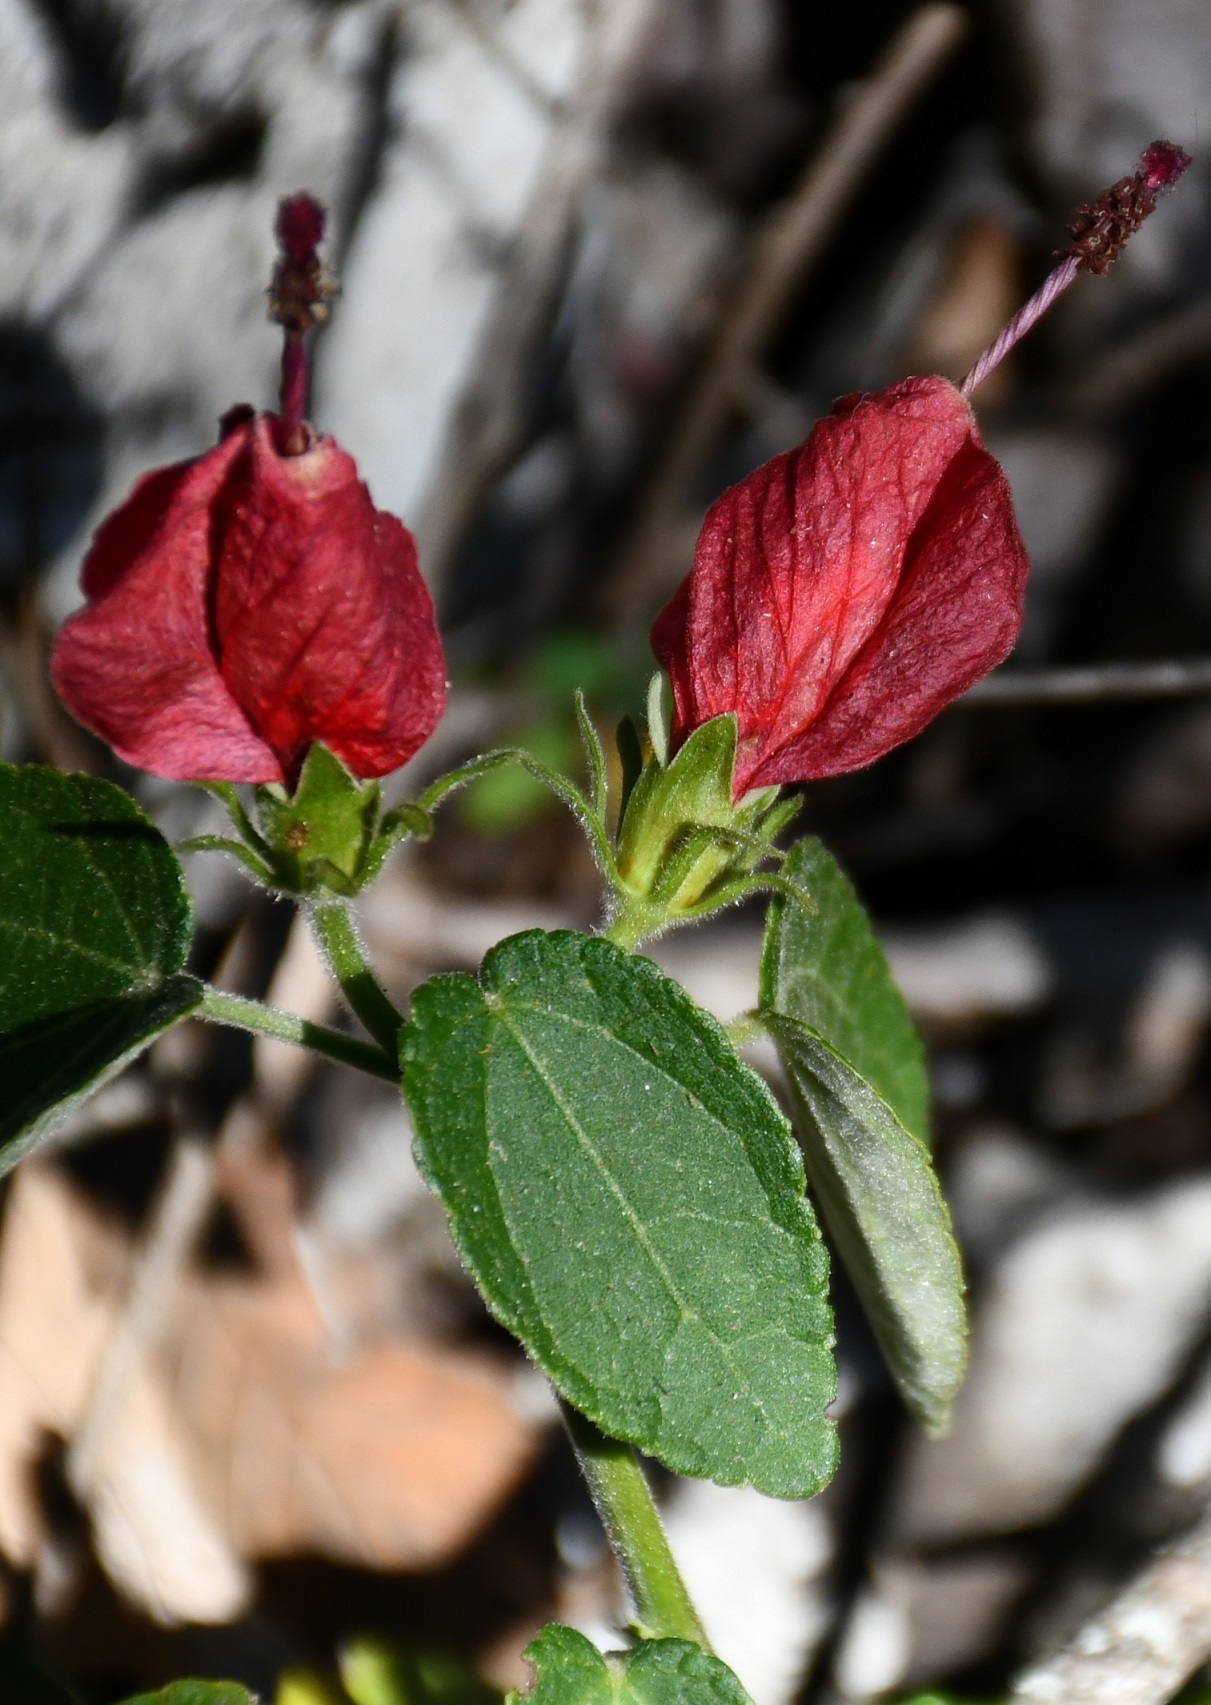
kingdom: Plantae
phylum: Tracheophyta
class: Magnoliopsida
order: Malvales
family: Malvaceae
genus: Malvaviscus
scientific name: Malvaviscus arboreus
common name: Wax mallow
